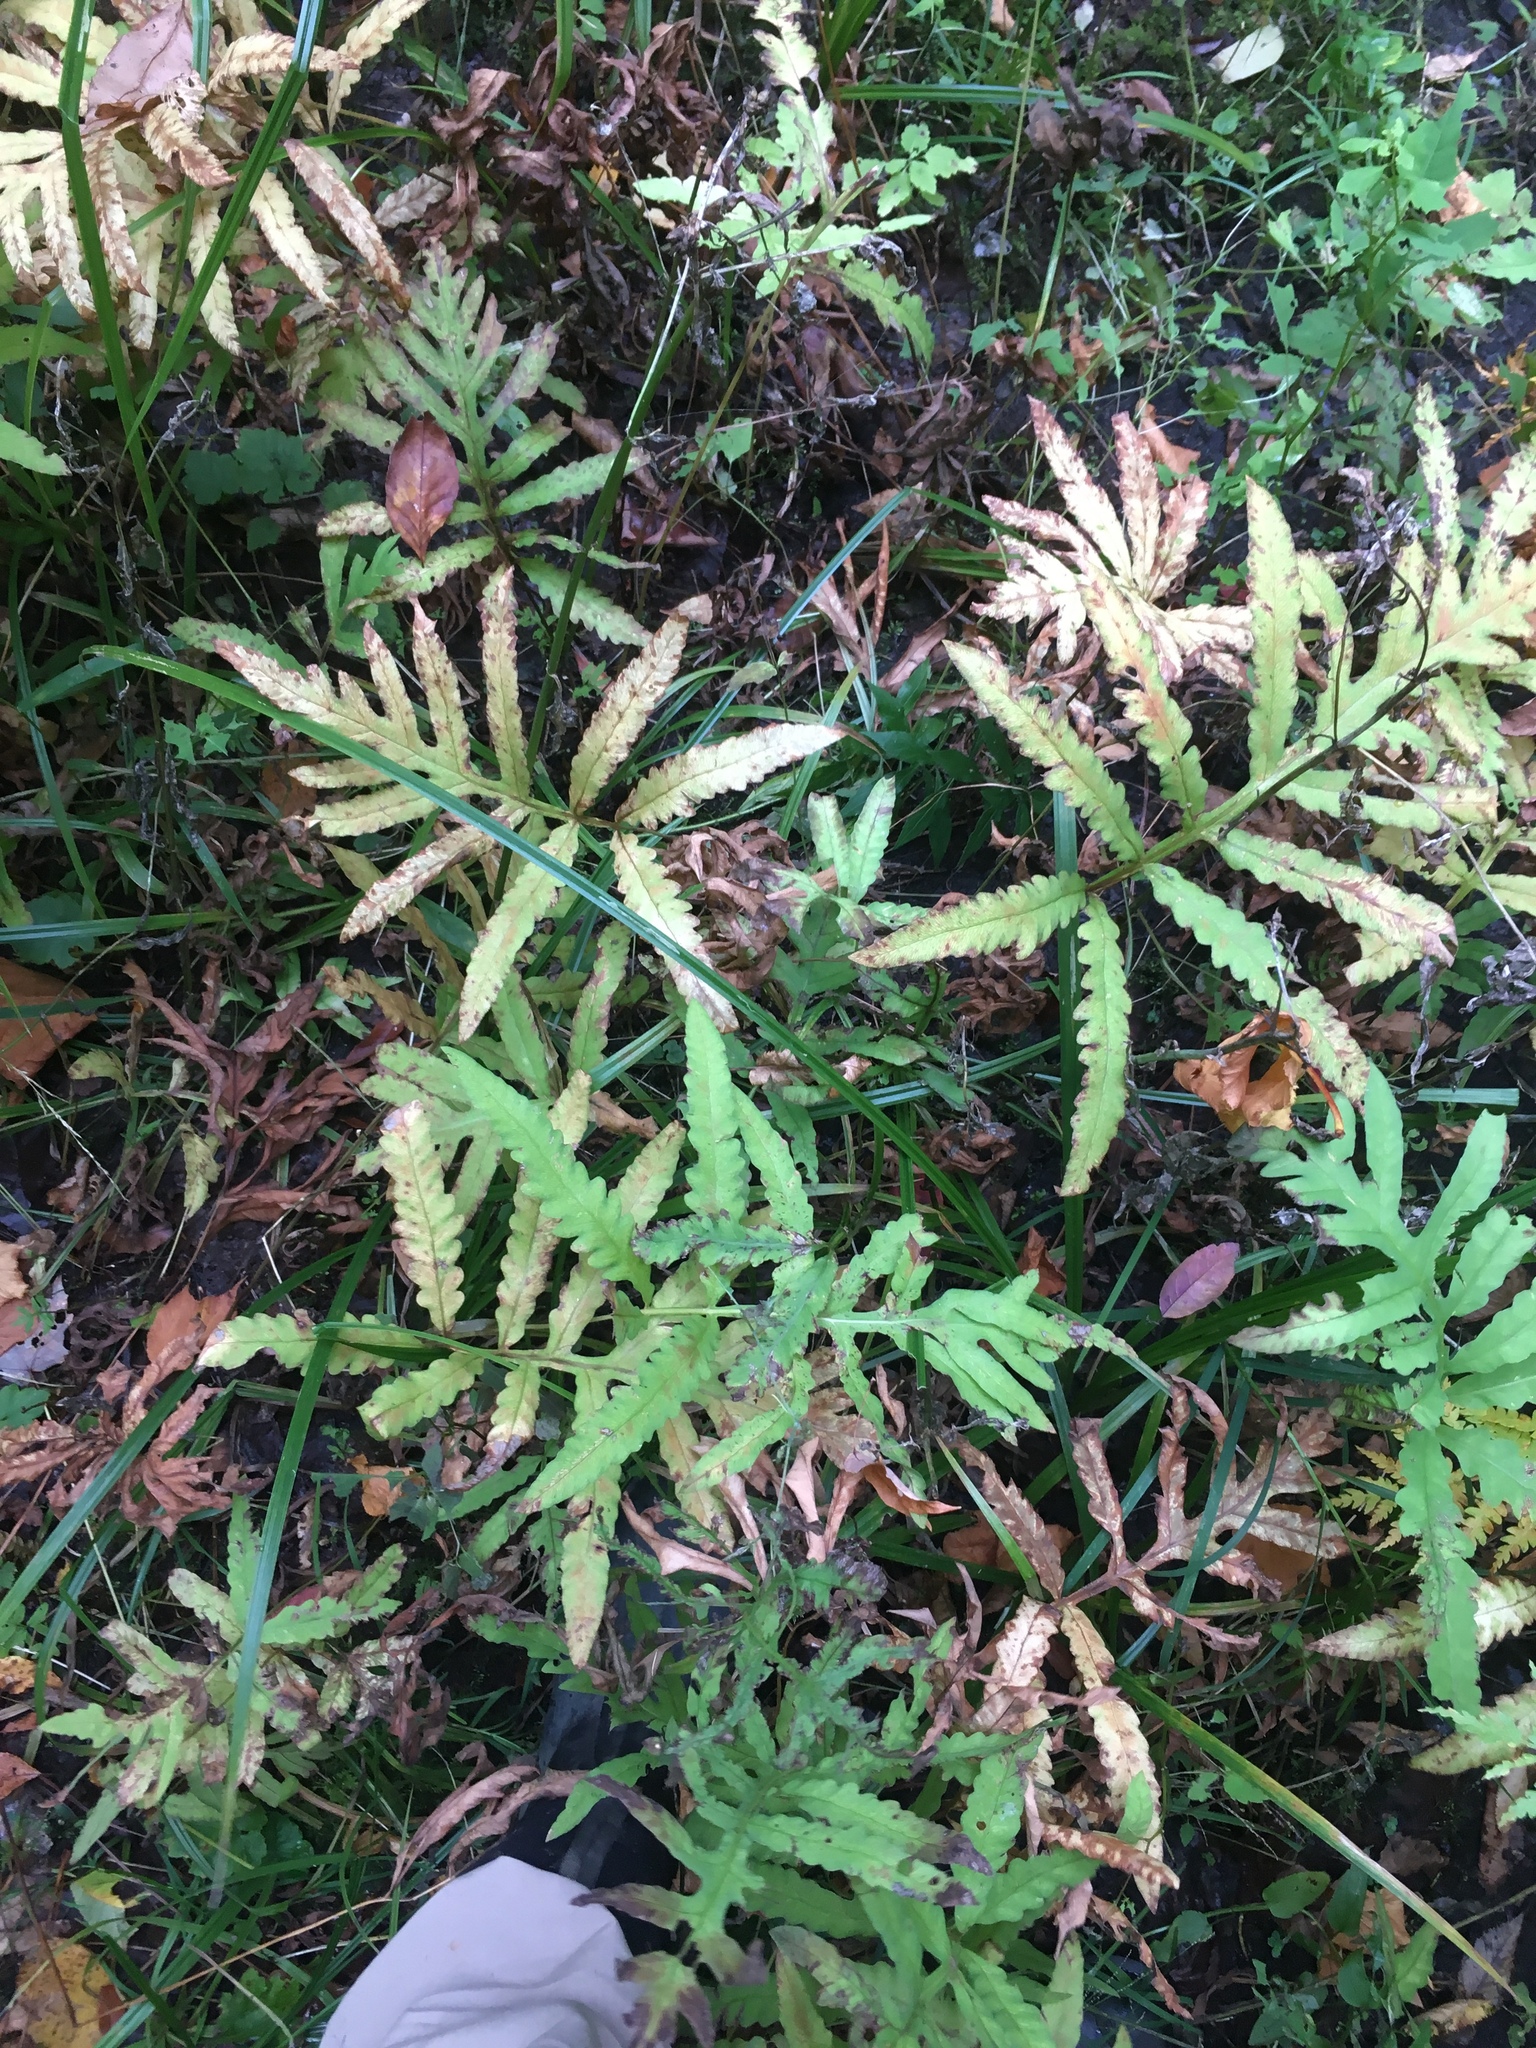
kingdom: Plantae
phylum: Tracheophyta
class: Polypodiopsida
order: Polypodiales
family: Onocleaceae
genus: Onoclea
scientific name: Onoclea sensibilis
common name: Sensitive fern
